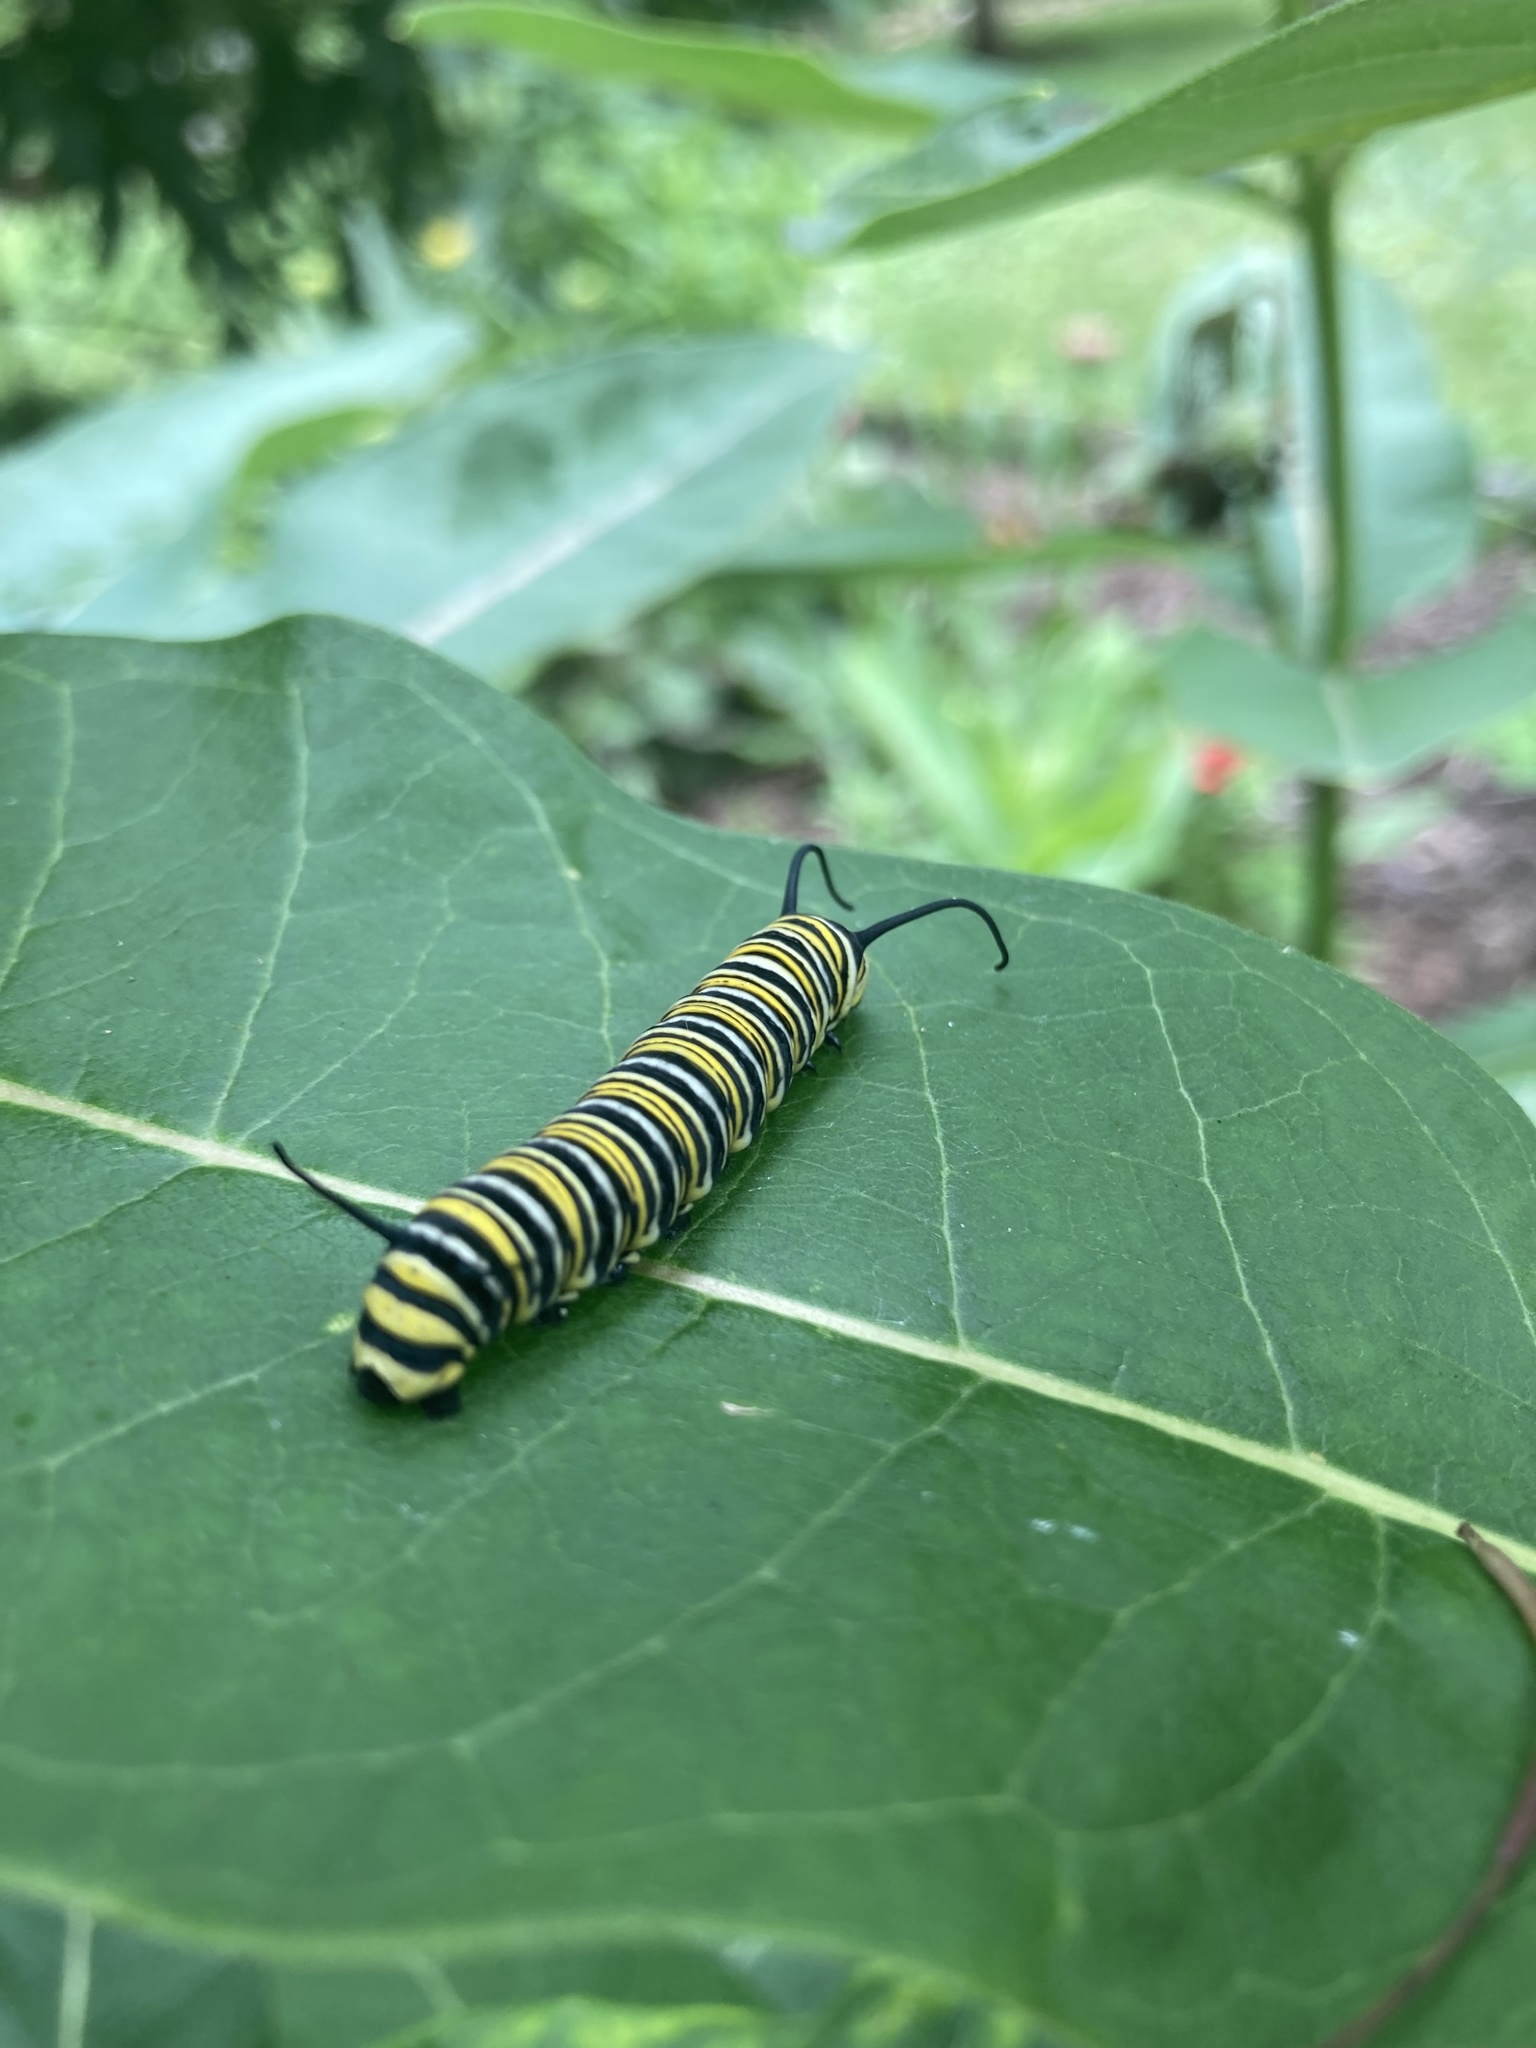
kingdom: Animalia
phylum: Arthropoda
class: Insecta
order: Lepidoptera
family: Nymphalidae
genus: Danaus
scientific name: Danaus plexippus
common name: Monarch
